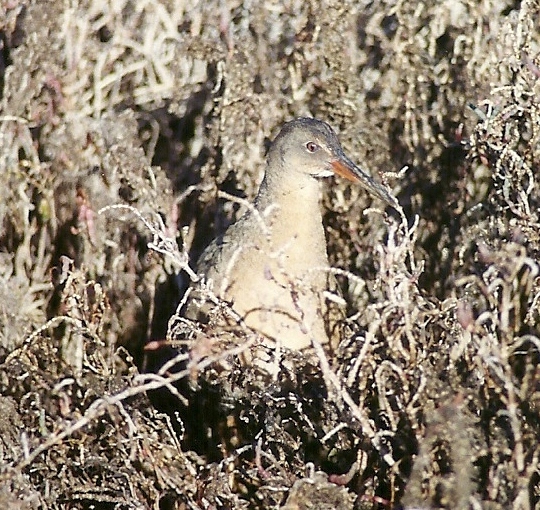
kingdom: Animalia
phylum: Chordata
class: Aves
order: Gruiformes
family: Rallidae
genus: Rallus
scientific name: Rallus obsoletus
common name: Ridgway's rail
